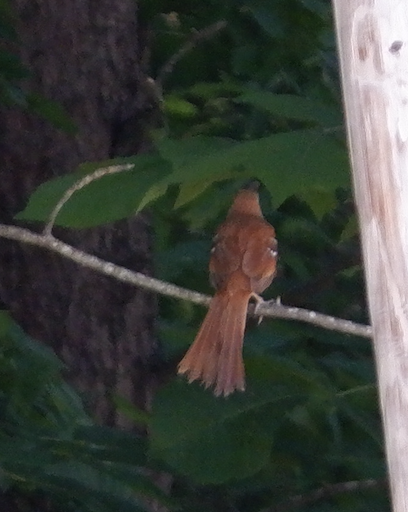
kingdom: Animalia
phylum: Chordata
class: Aves
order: Passeriformes
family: Mimidae
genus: Toxostoma
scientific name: Toxostoma rufum
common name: Brown thrasher
